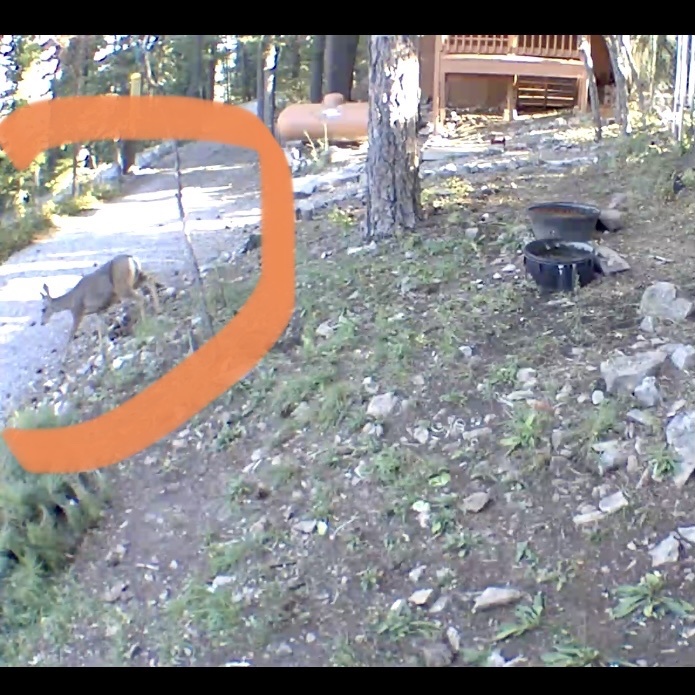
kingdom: Animalia
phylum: Chordata
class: Mammalia
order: Artiodactyla
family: Cervidae
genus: Odocoileus
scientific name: Odocoileus hemionus
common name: Mule deer
